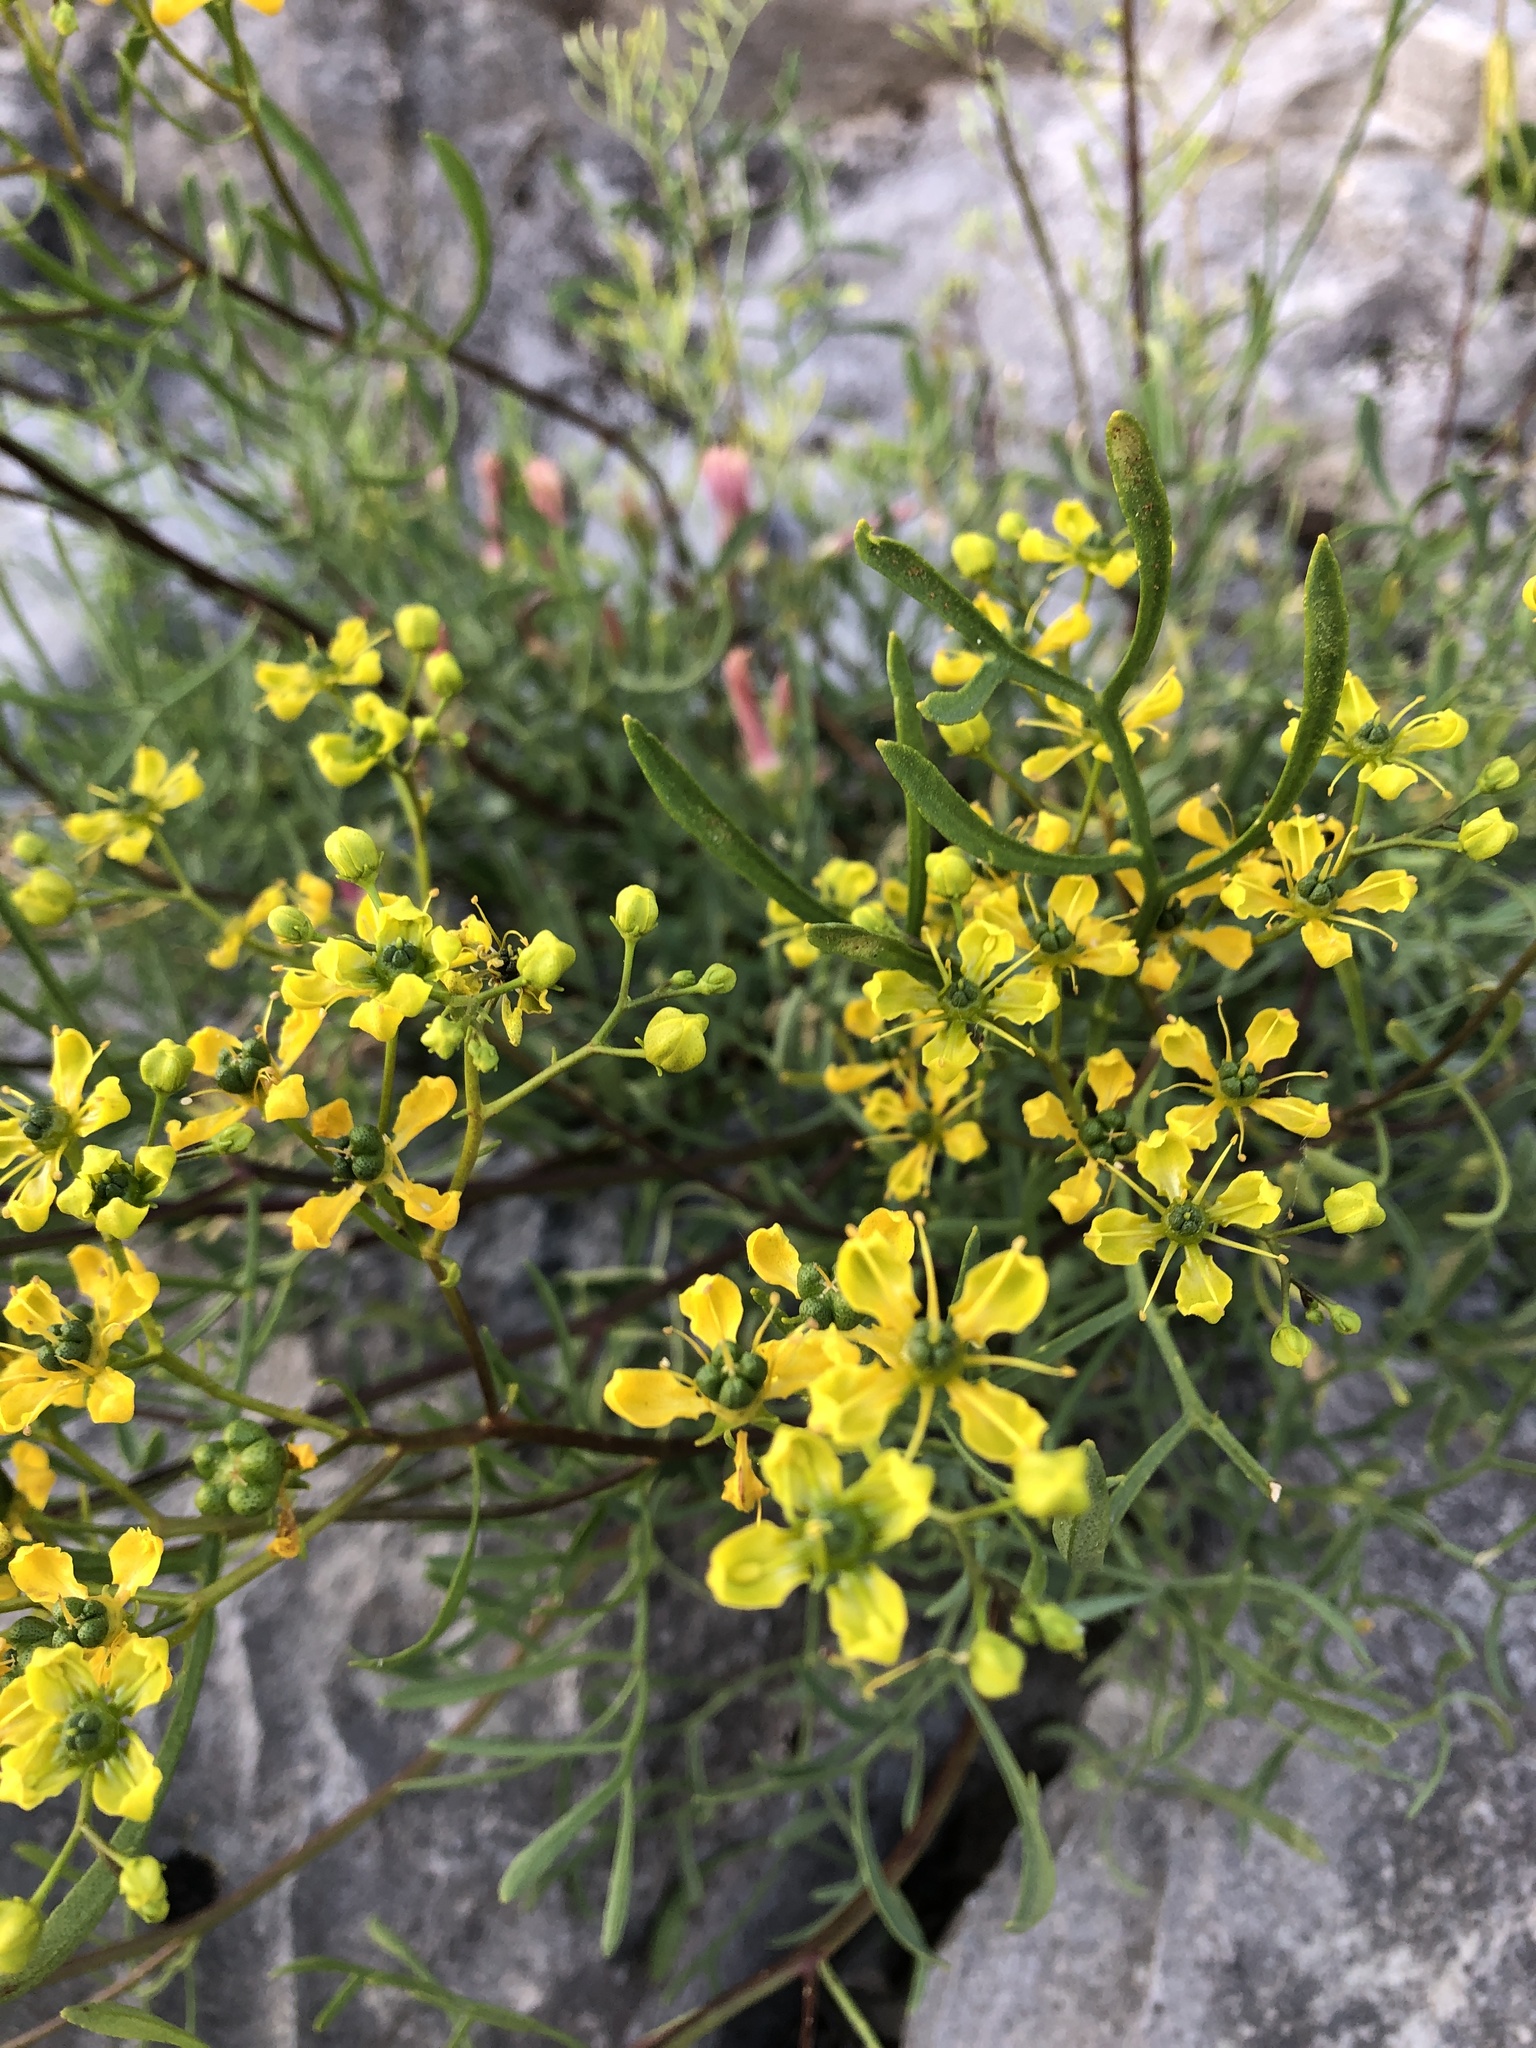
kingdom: Plantae
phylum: Tracheophyta
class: Magnoliopsida
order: Sapindales
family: Rutaceae
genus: Ruta
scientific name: Ruta
